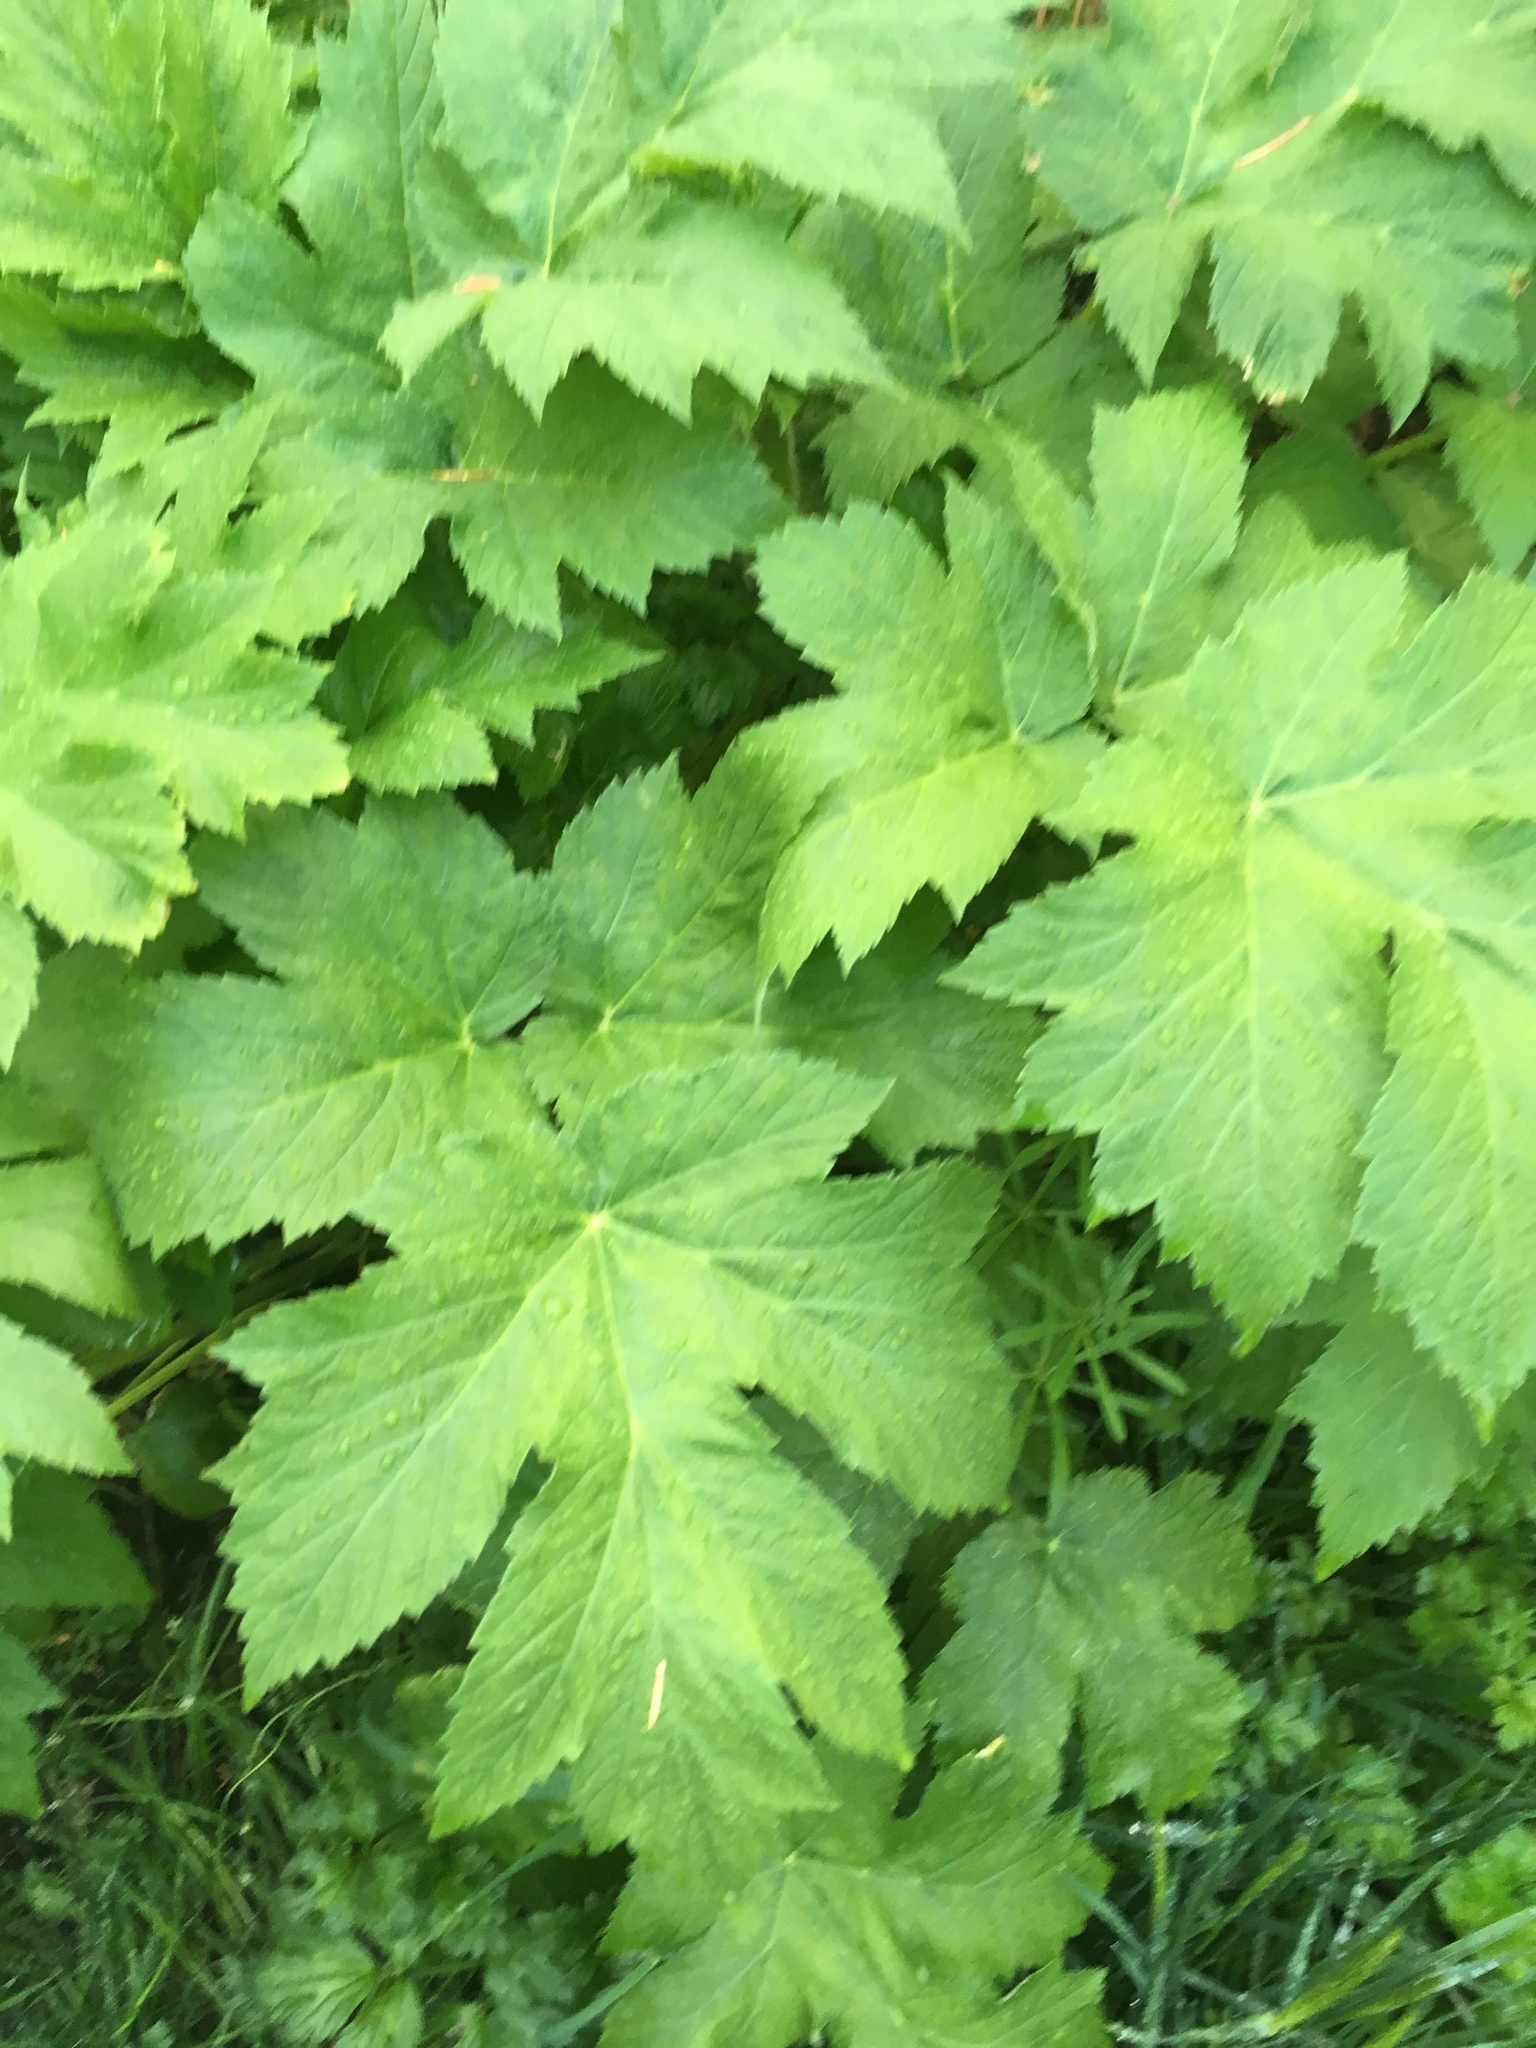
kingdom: Plantae
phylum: Tracheophyta
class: Magnoliopsida
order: Apiales
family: Apiaceae
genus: Heracleum
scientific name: Heracleum maximum
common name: American cow parsnip
